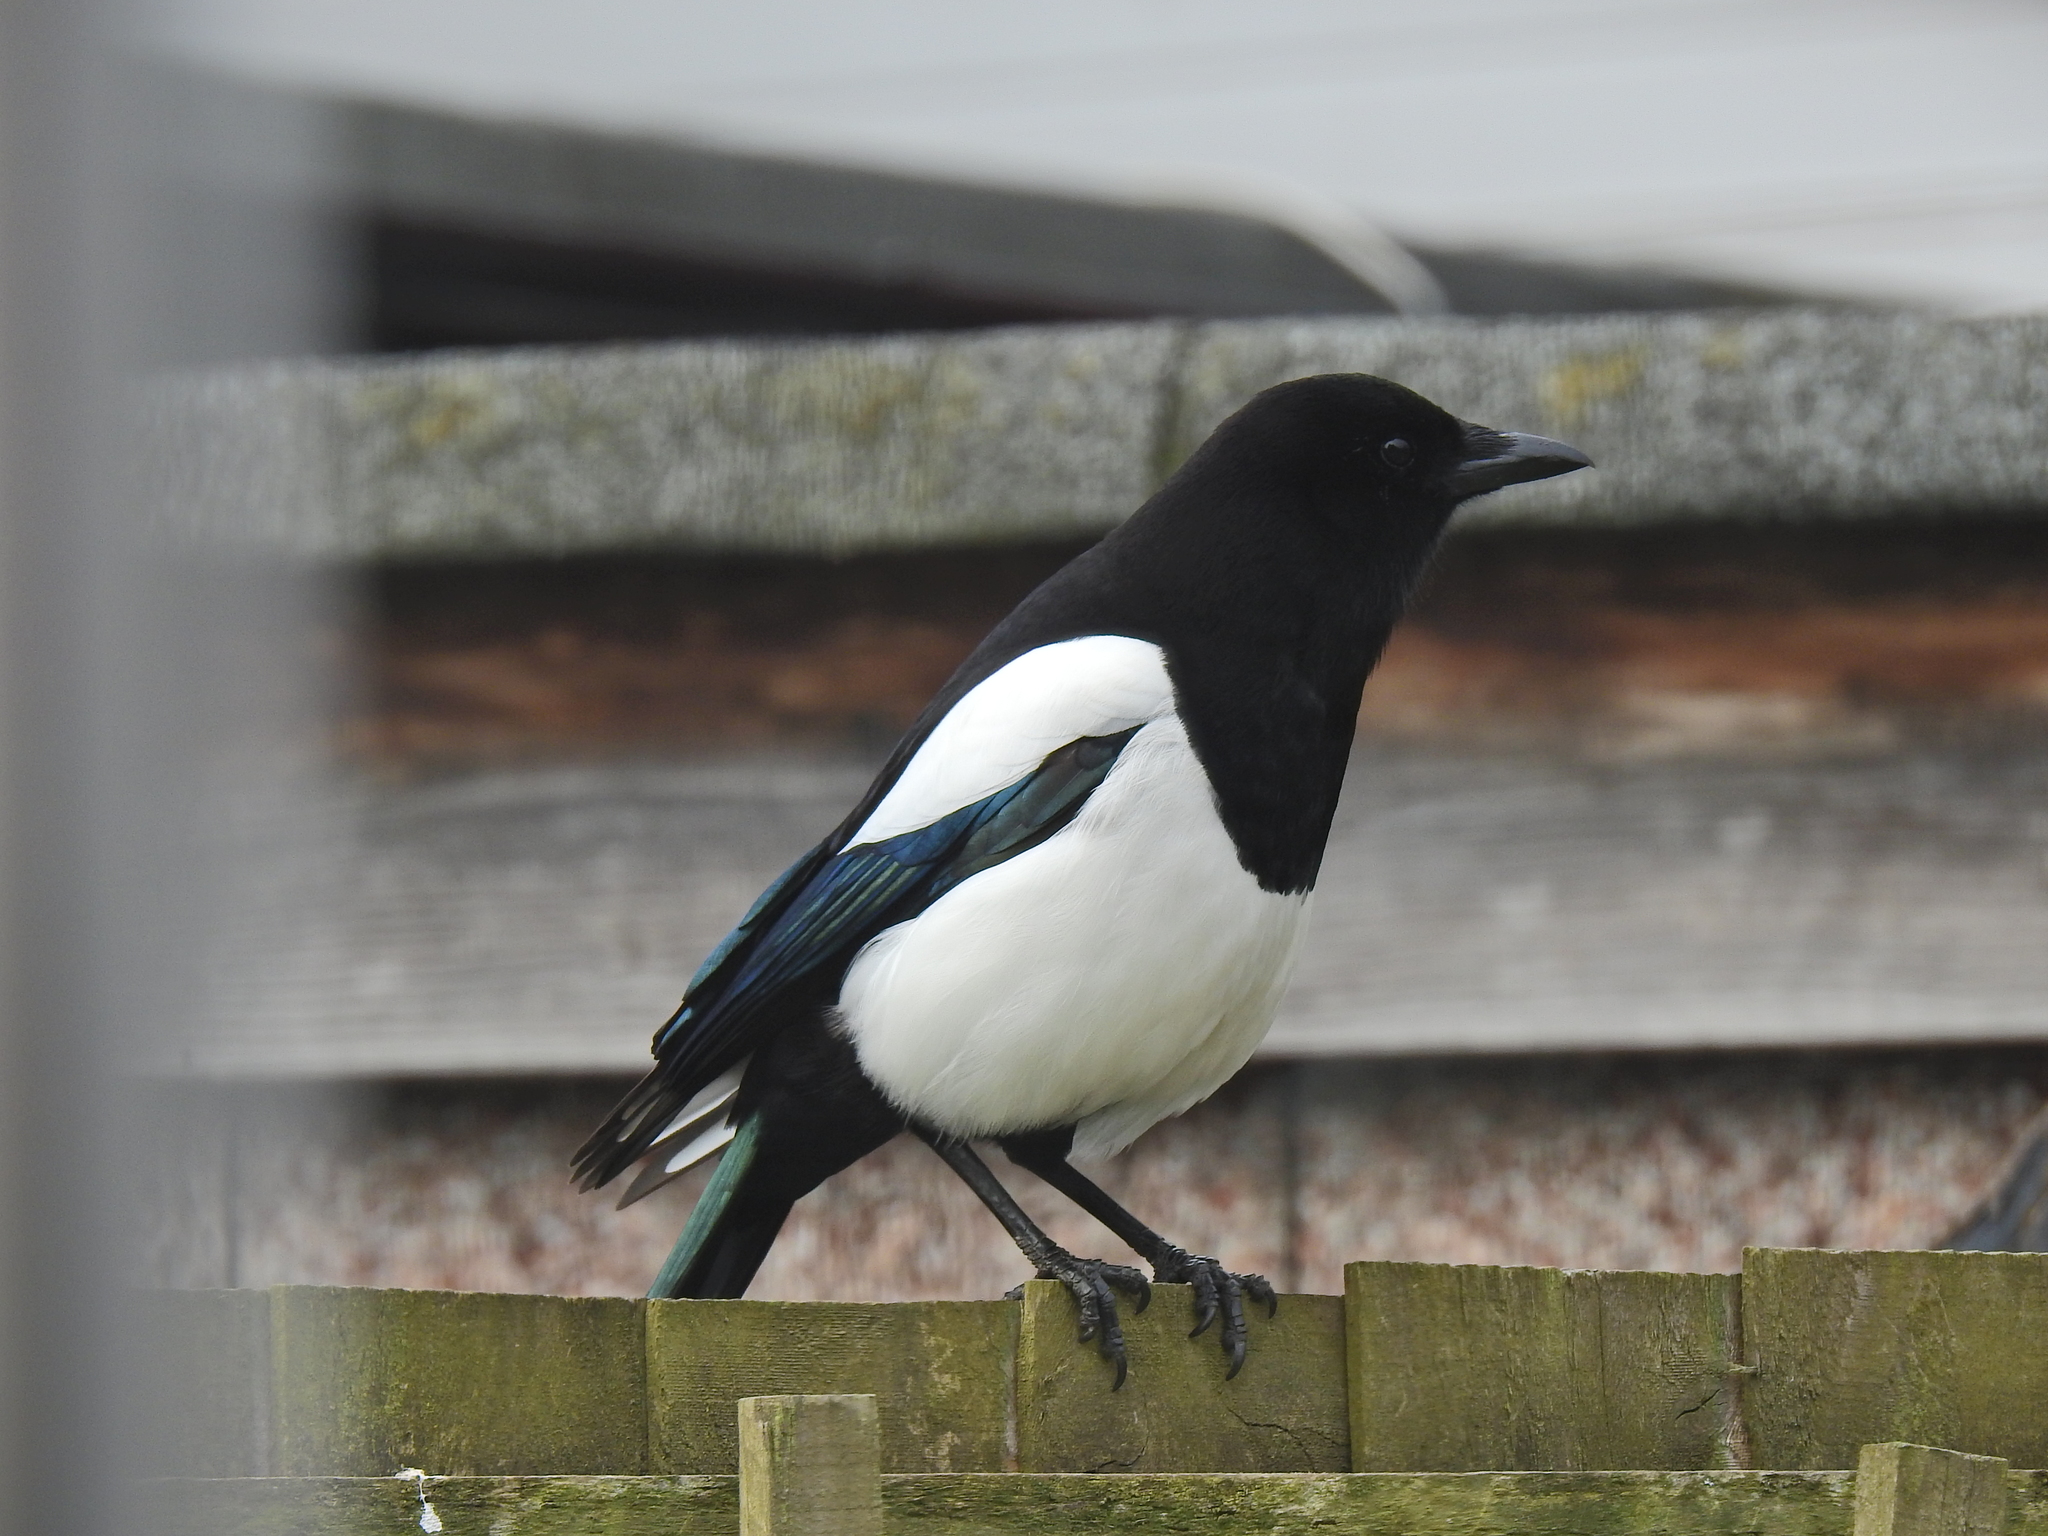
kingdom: Animalia
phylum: Chordata
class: Aves
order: Passeriformes
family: Corvidae
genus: Pica
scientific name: Pica pica
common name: Eurasian magpie
